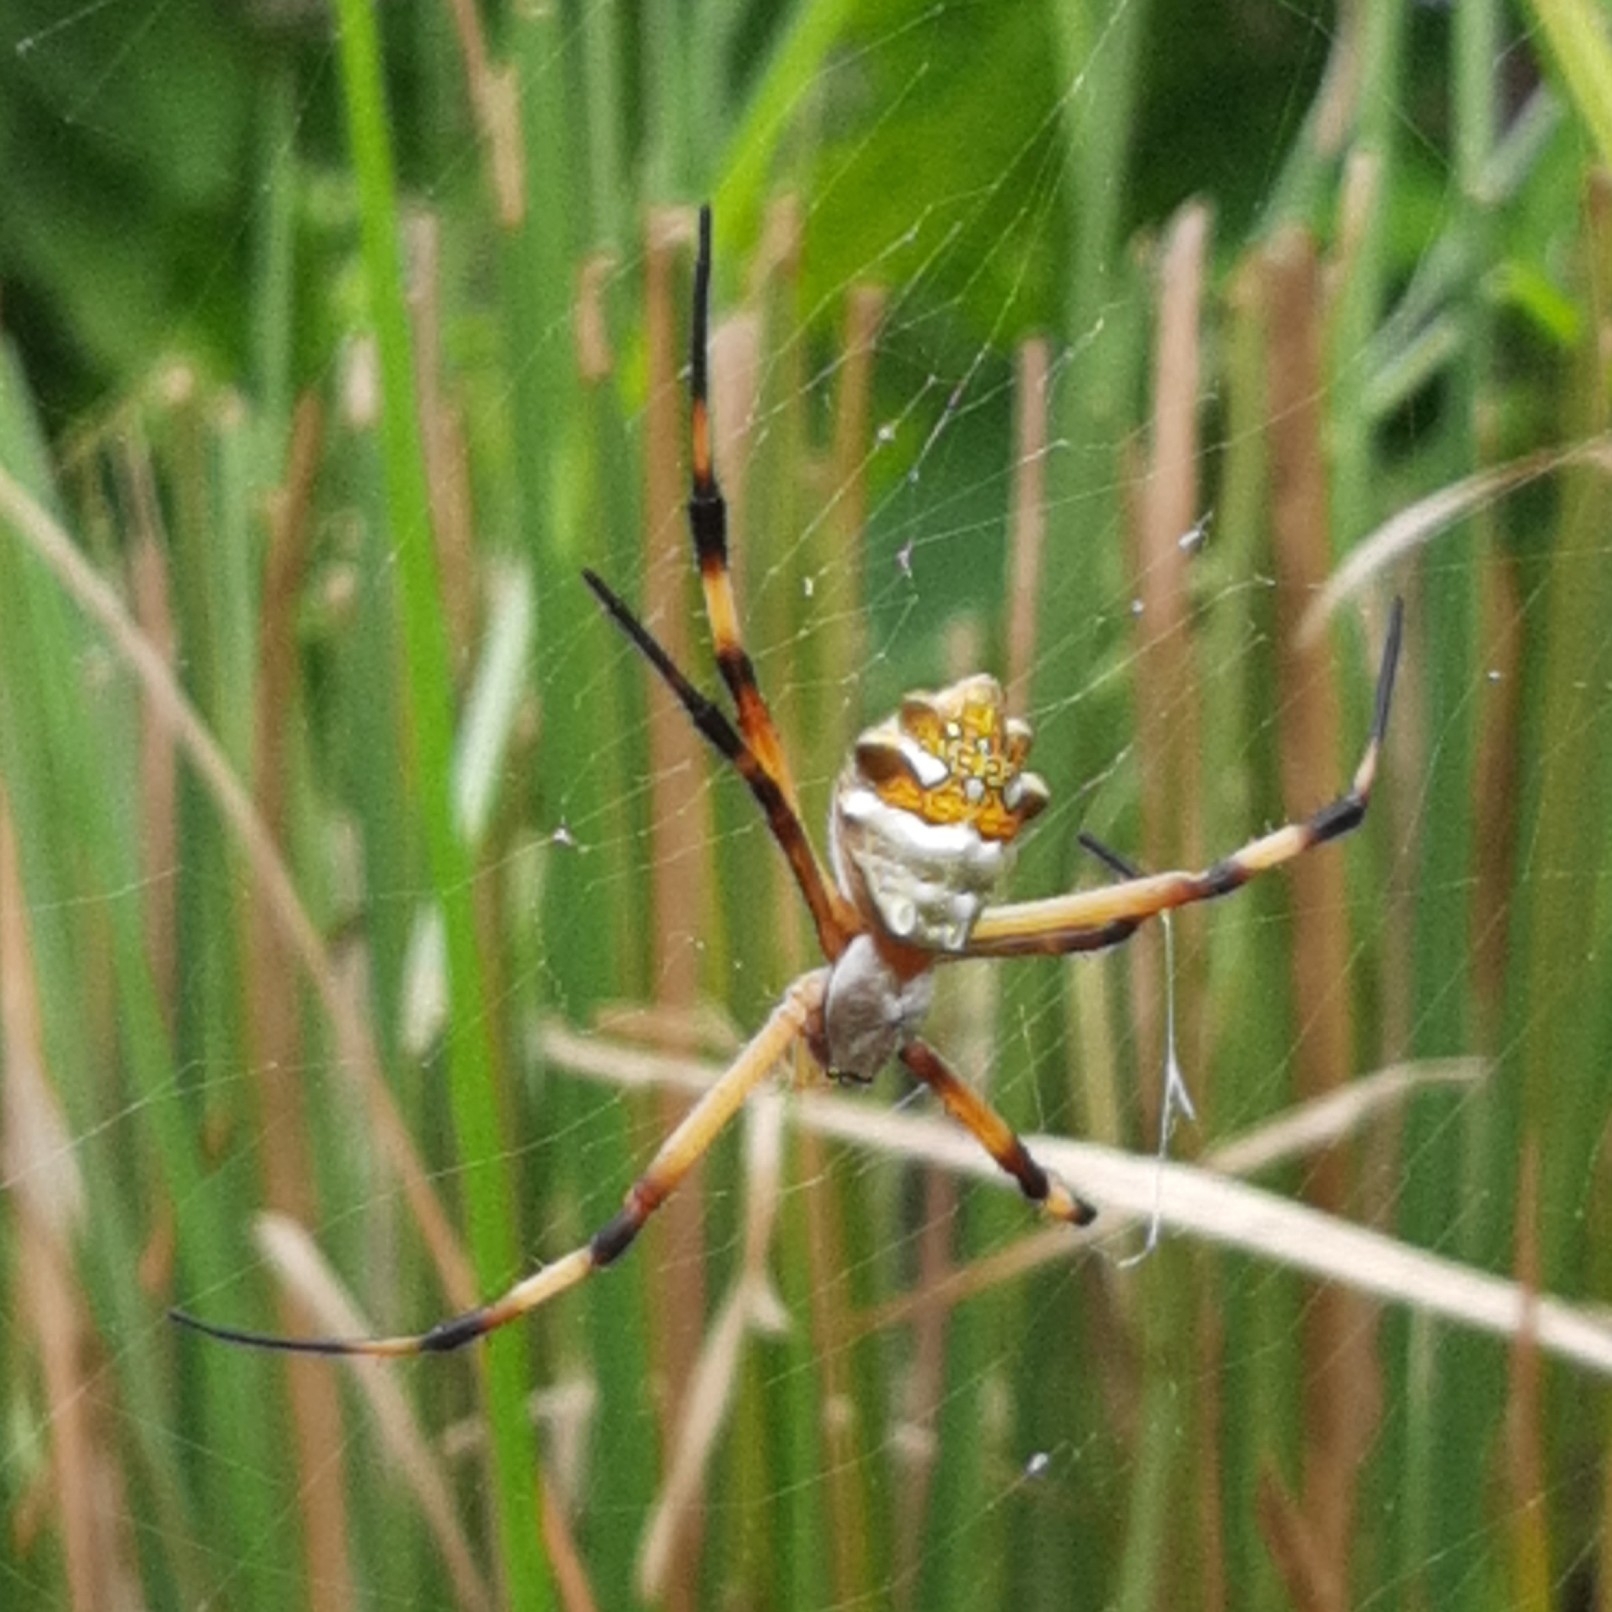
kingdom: Animalia
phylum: Arthropoda
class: Arachnida
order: Araneae
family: Araneidae
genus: Argiope
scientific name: Argiope argentata
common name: Orb weavers
